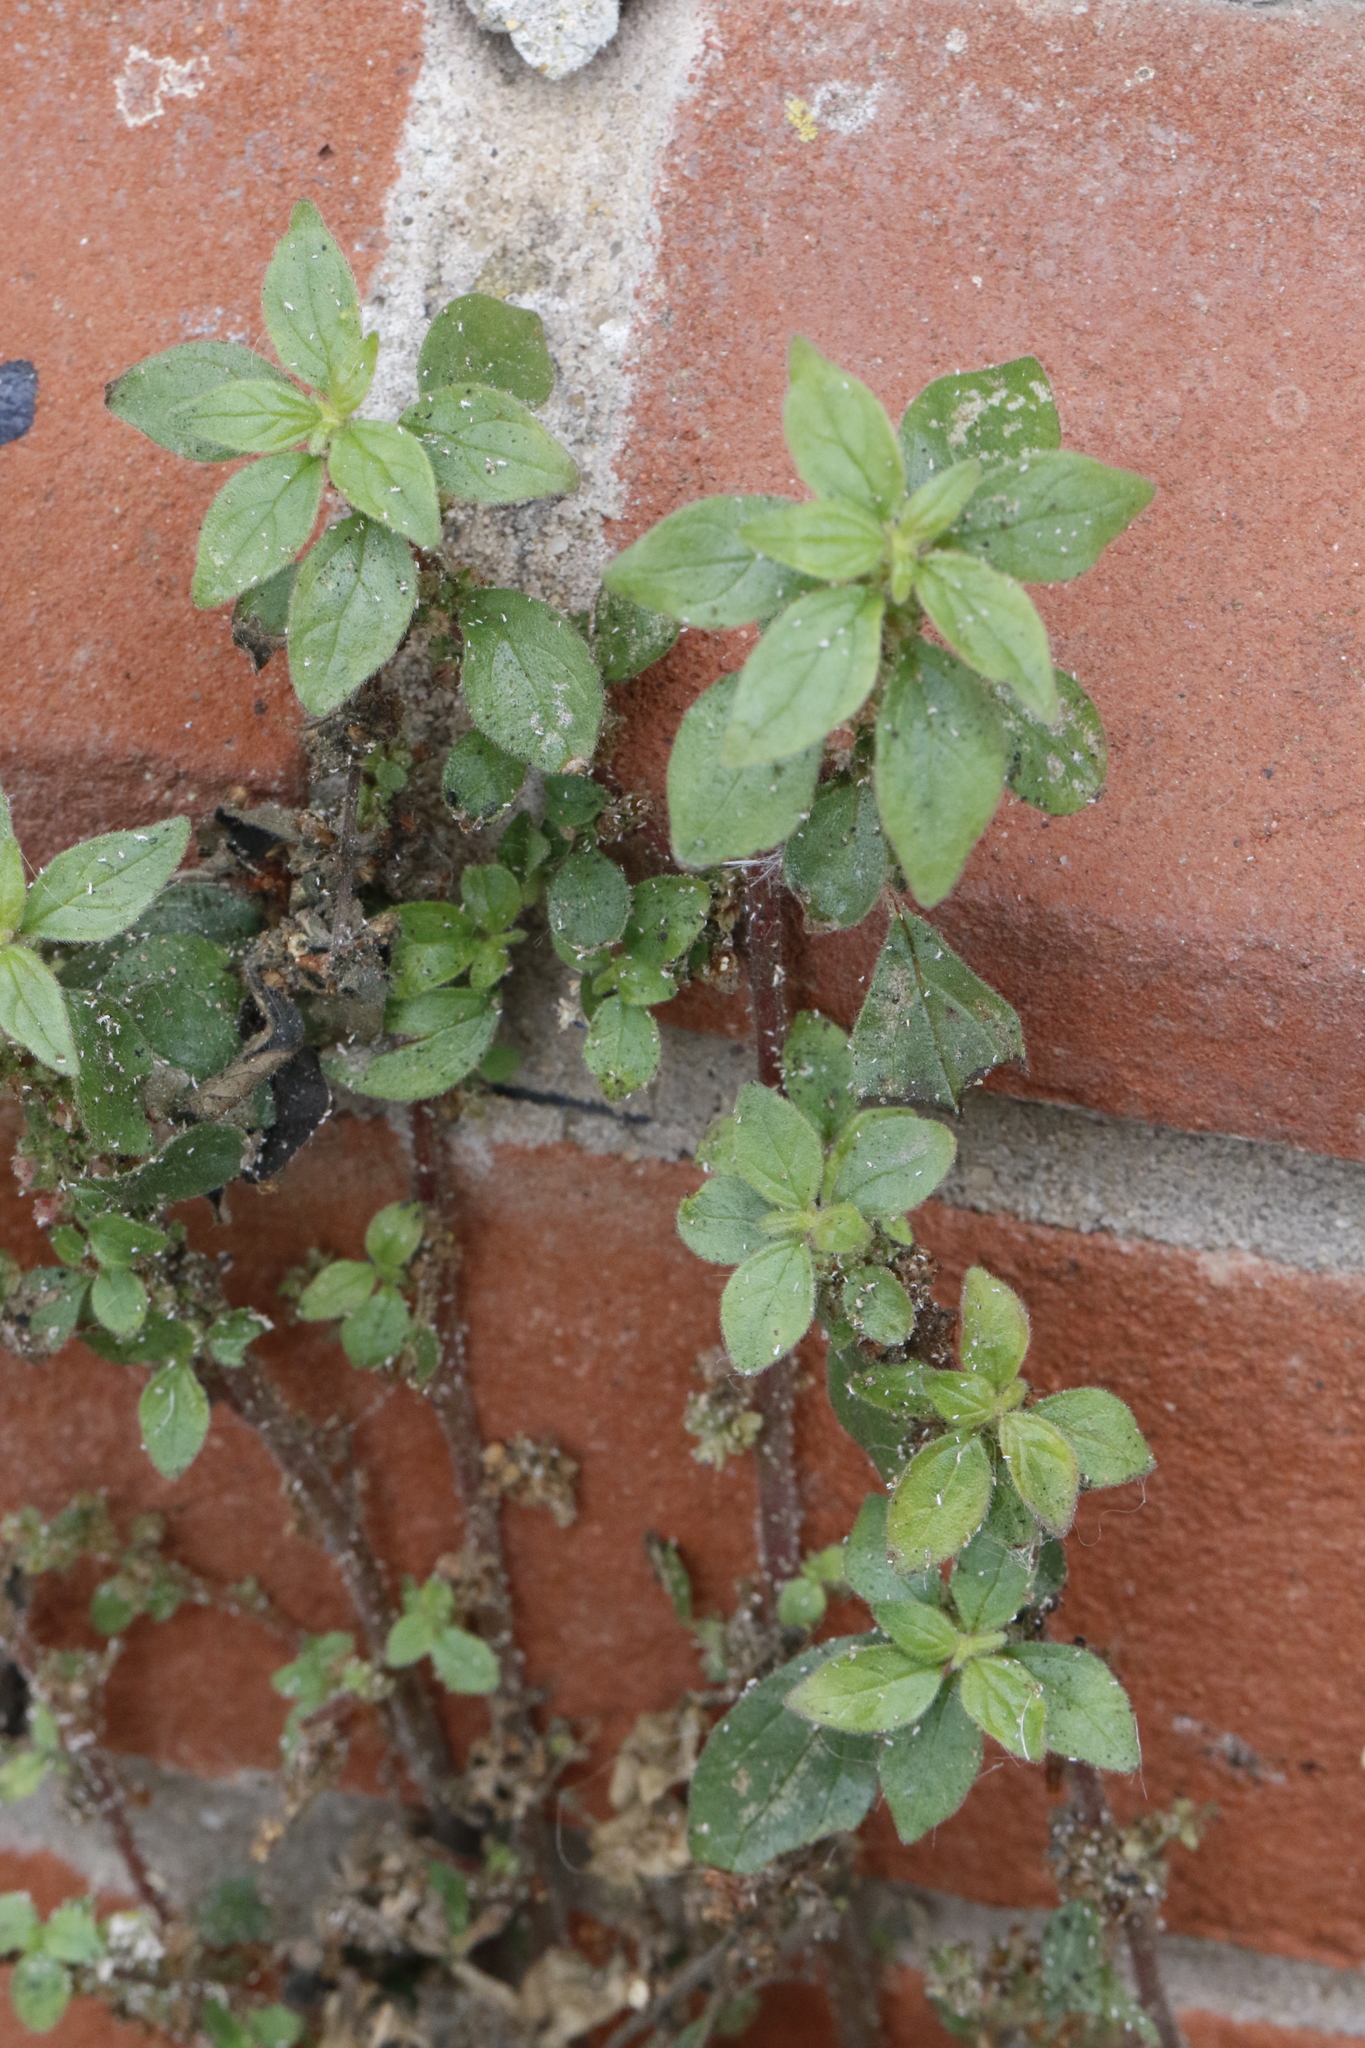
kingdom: Plantae
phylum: Tracheophyta
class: Magnoliopsida
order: Rosales
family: Urticaceae
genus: Parietaria
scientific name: Parietaria judaica
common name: Pellitory-of-the-wall
